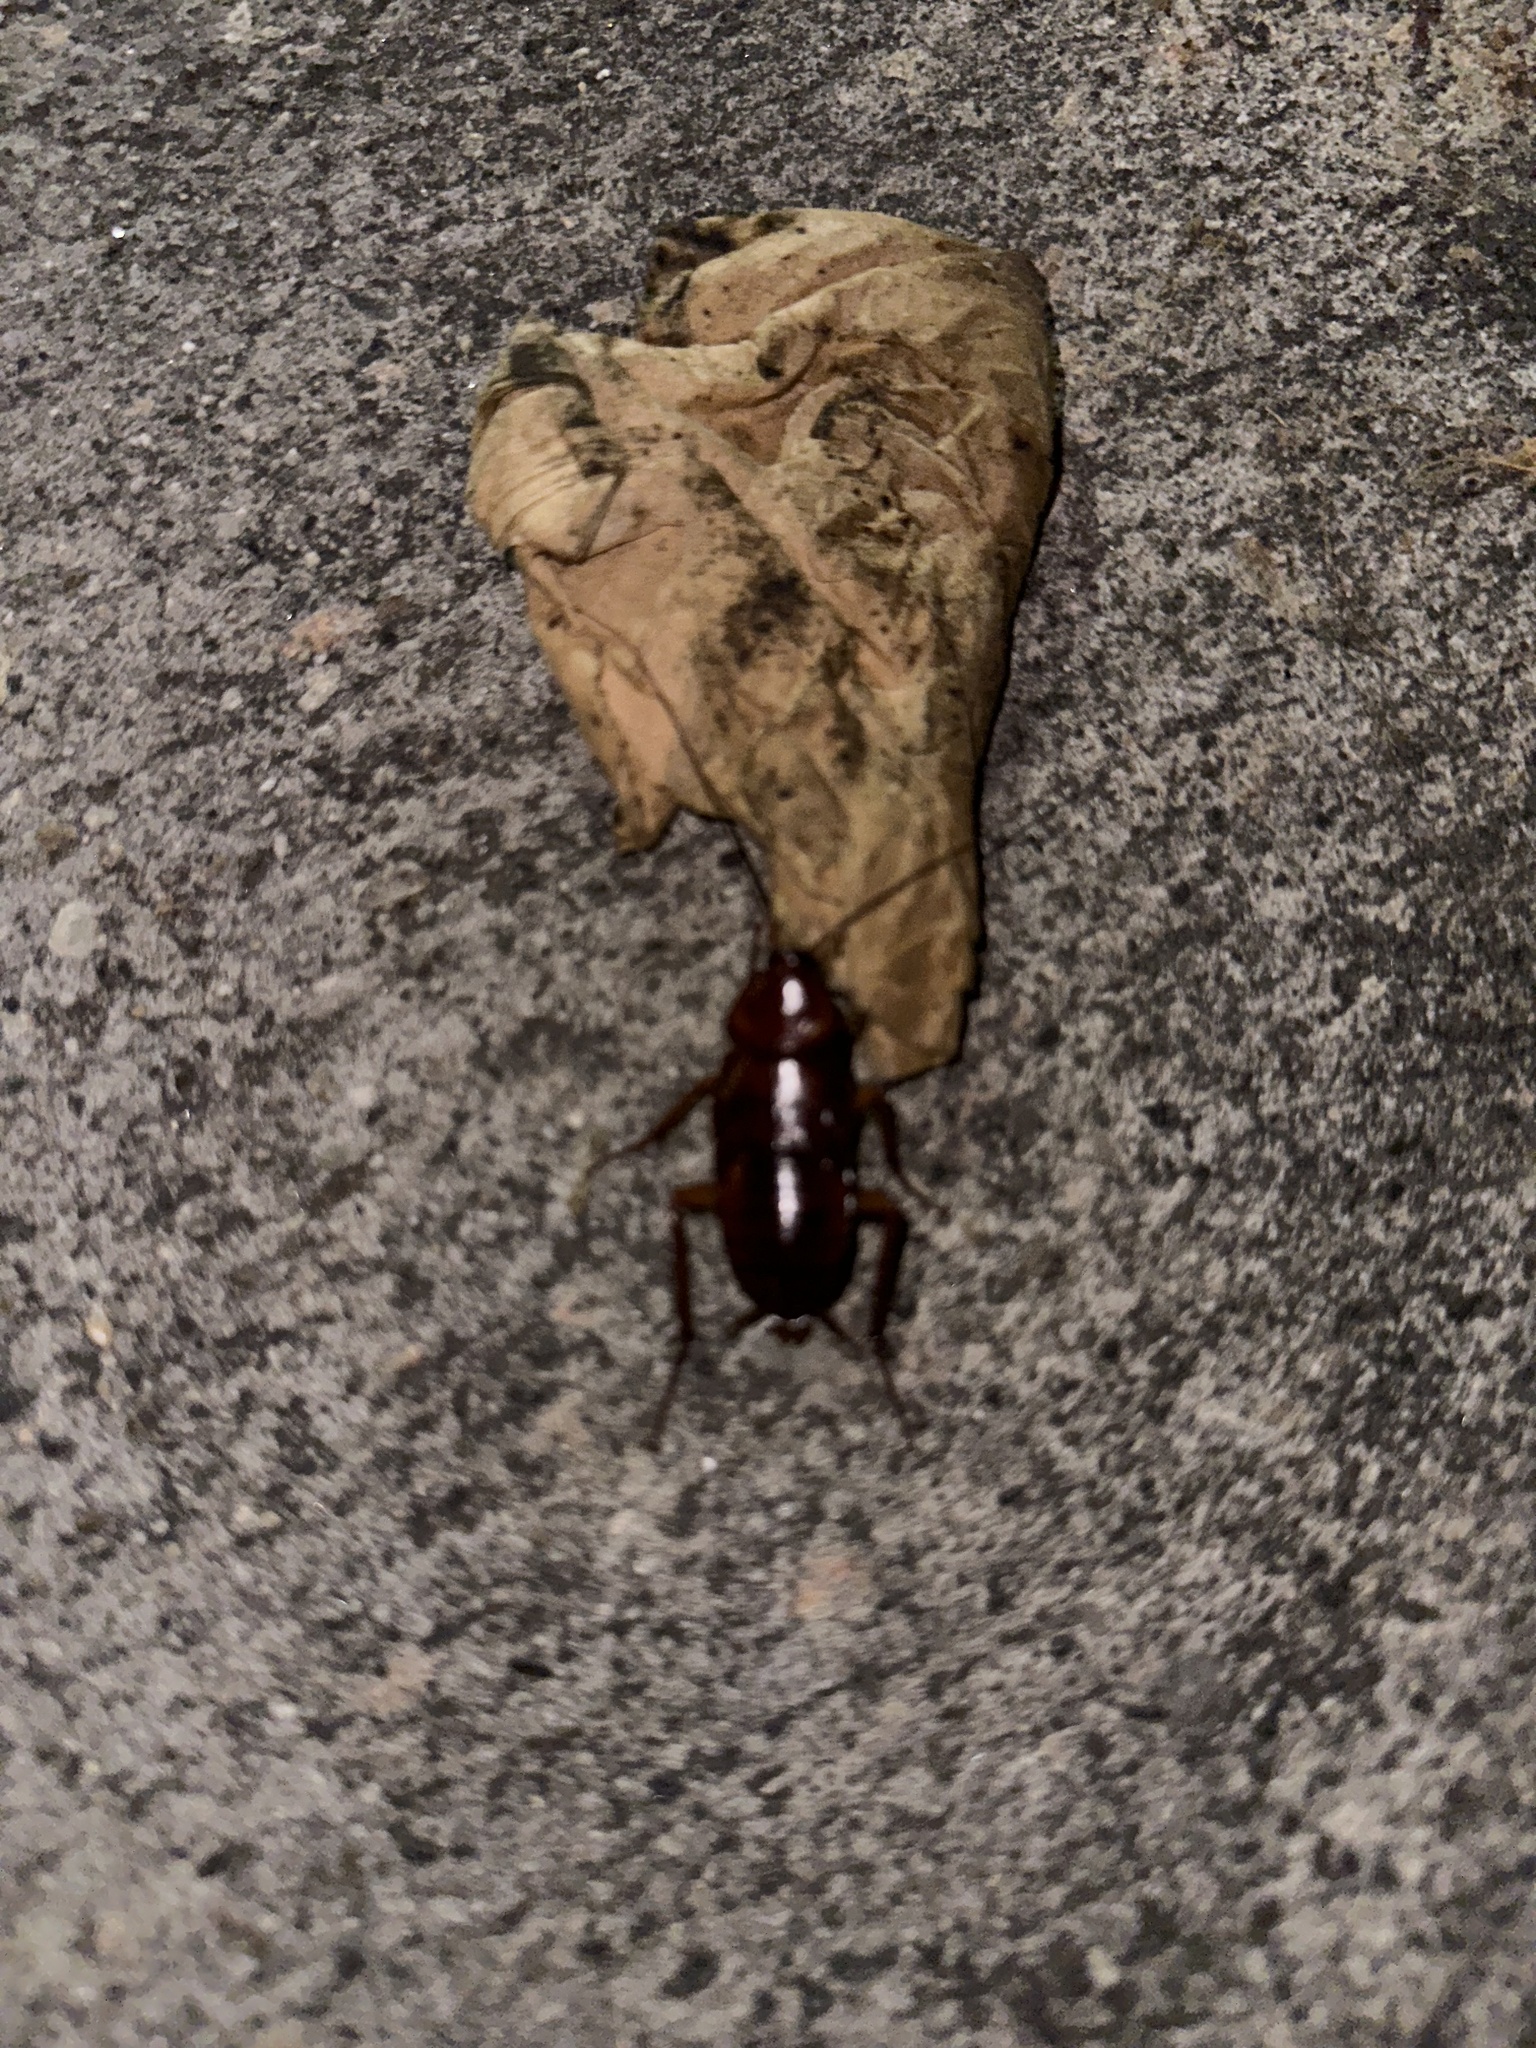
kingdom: Animalia
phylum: Arthropoda
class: Insecta
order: Blattodea
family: Blattidae
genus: Periplaneta
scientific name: Periplaneta americana
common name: American cockroach
